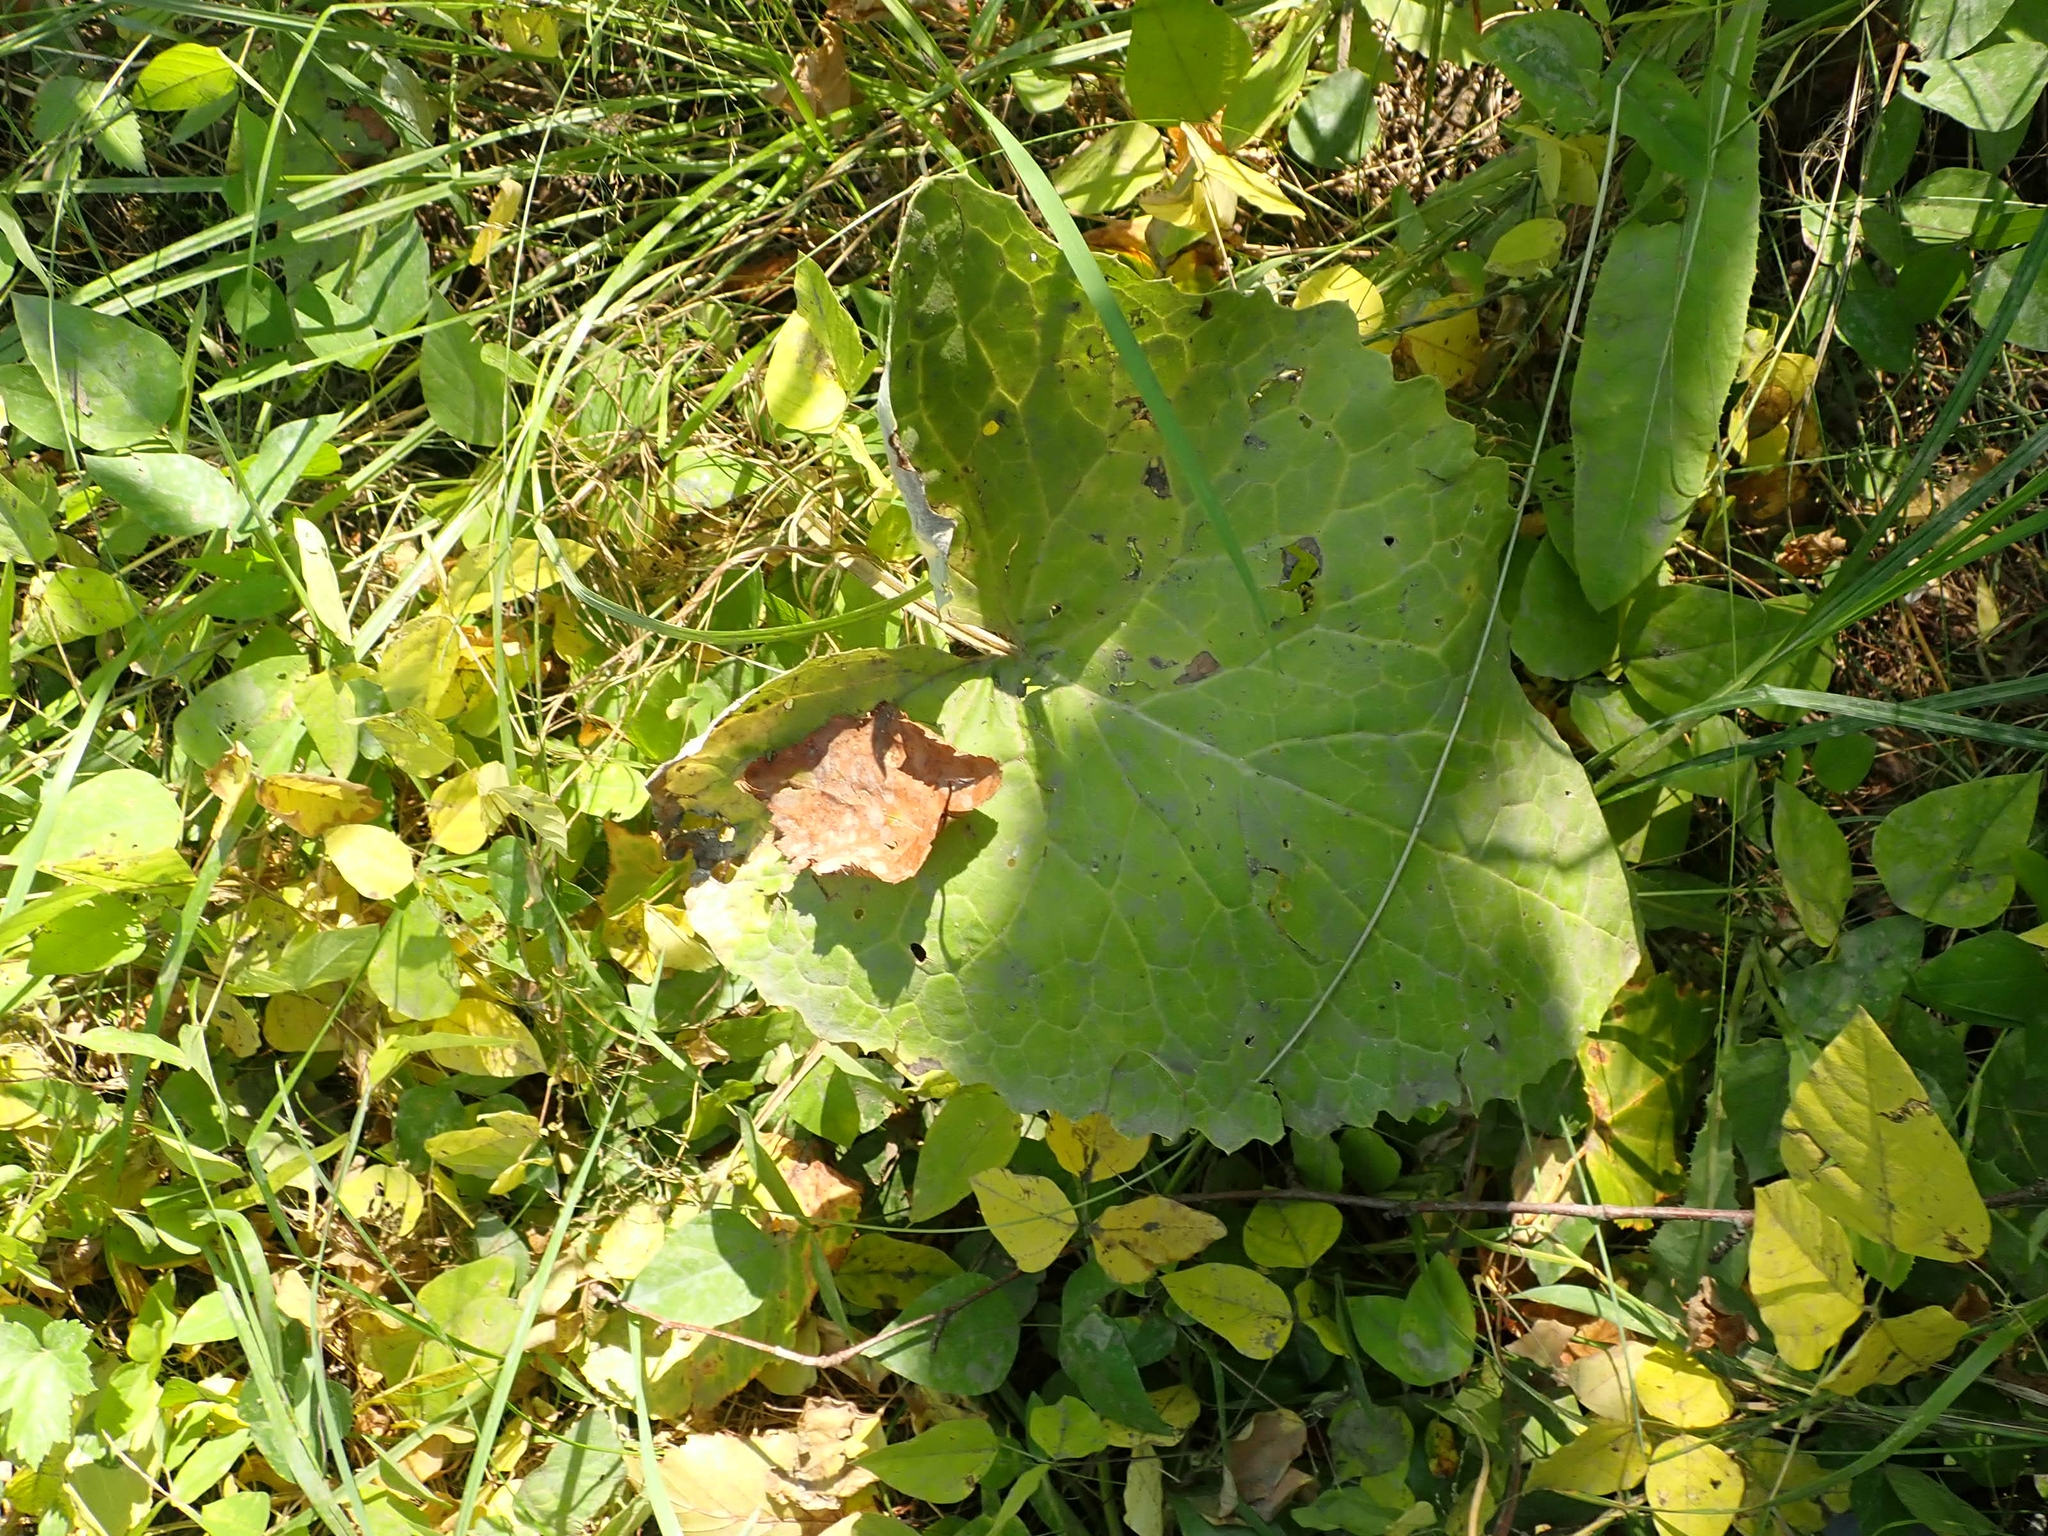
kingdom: Plantae
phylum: Tracheophyta
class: Magnoliopsida
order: Asterales
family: Asteraceae
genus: Petasites
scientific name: Petasites frigidus
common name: Arctic butterbur
